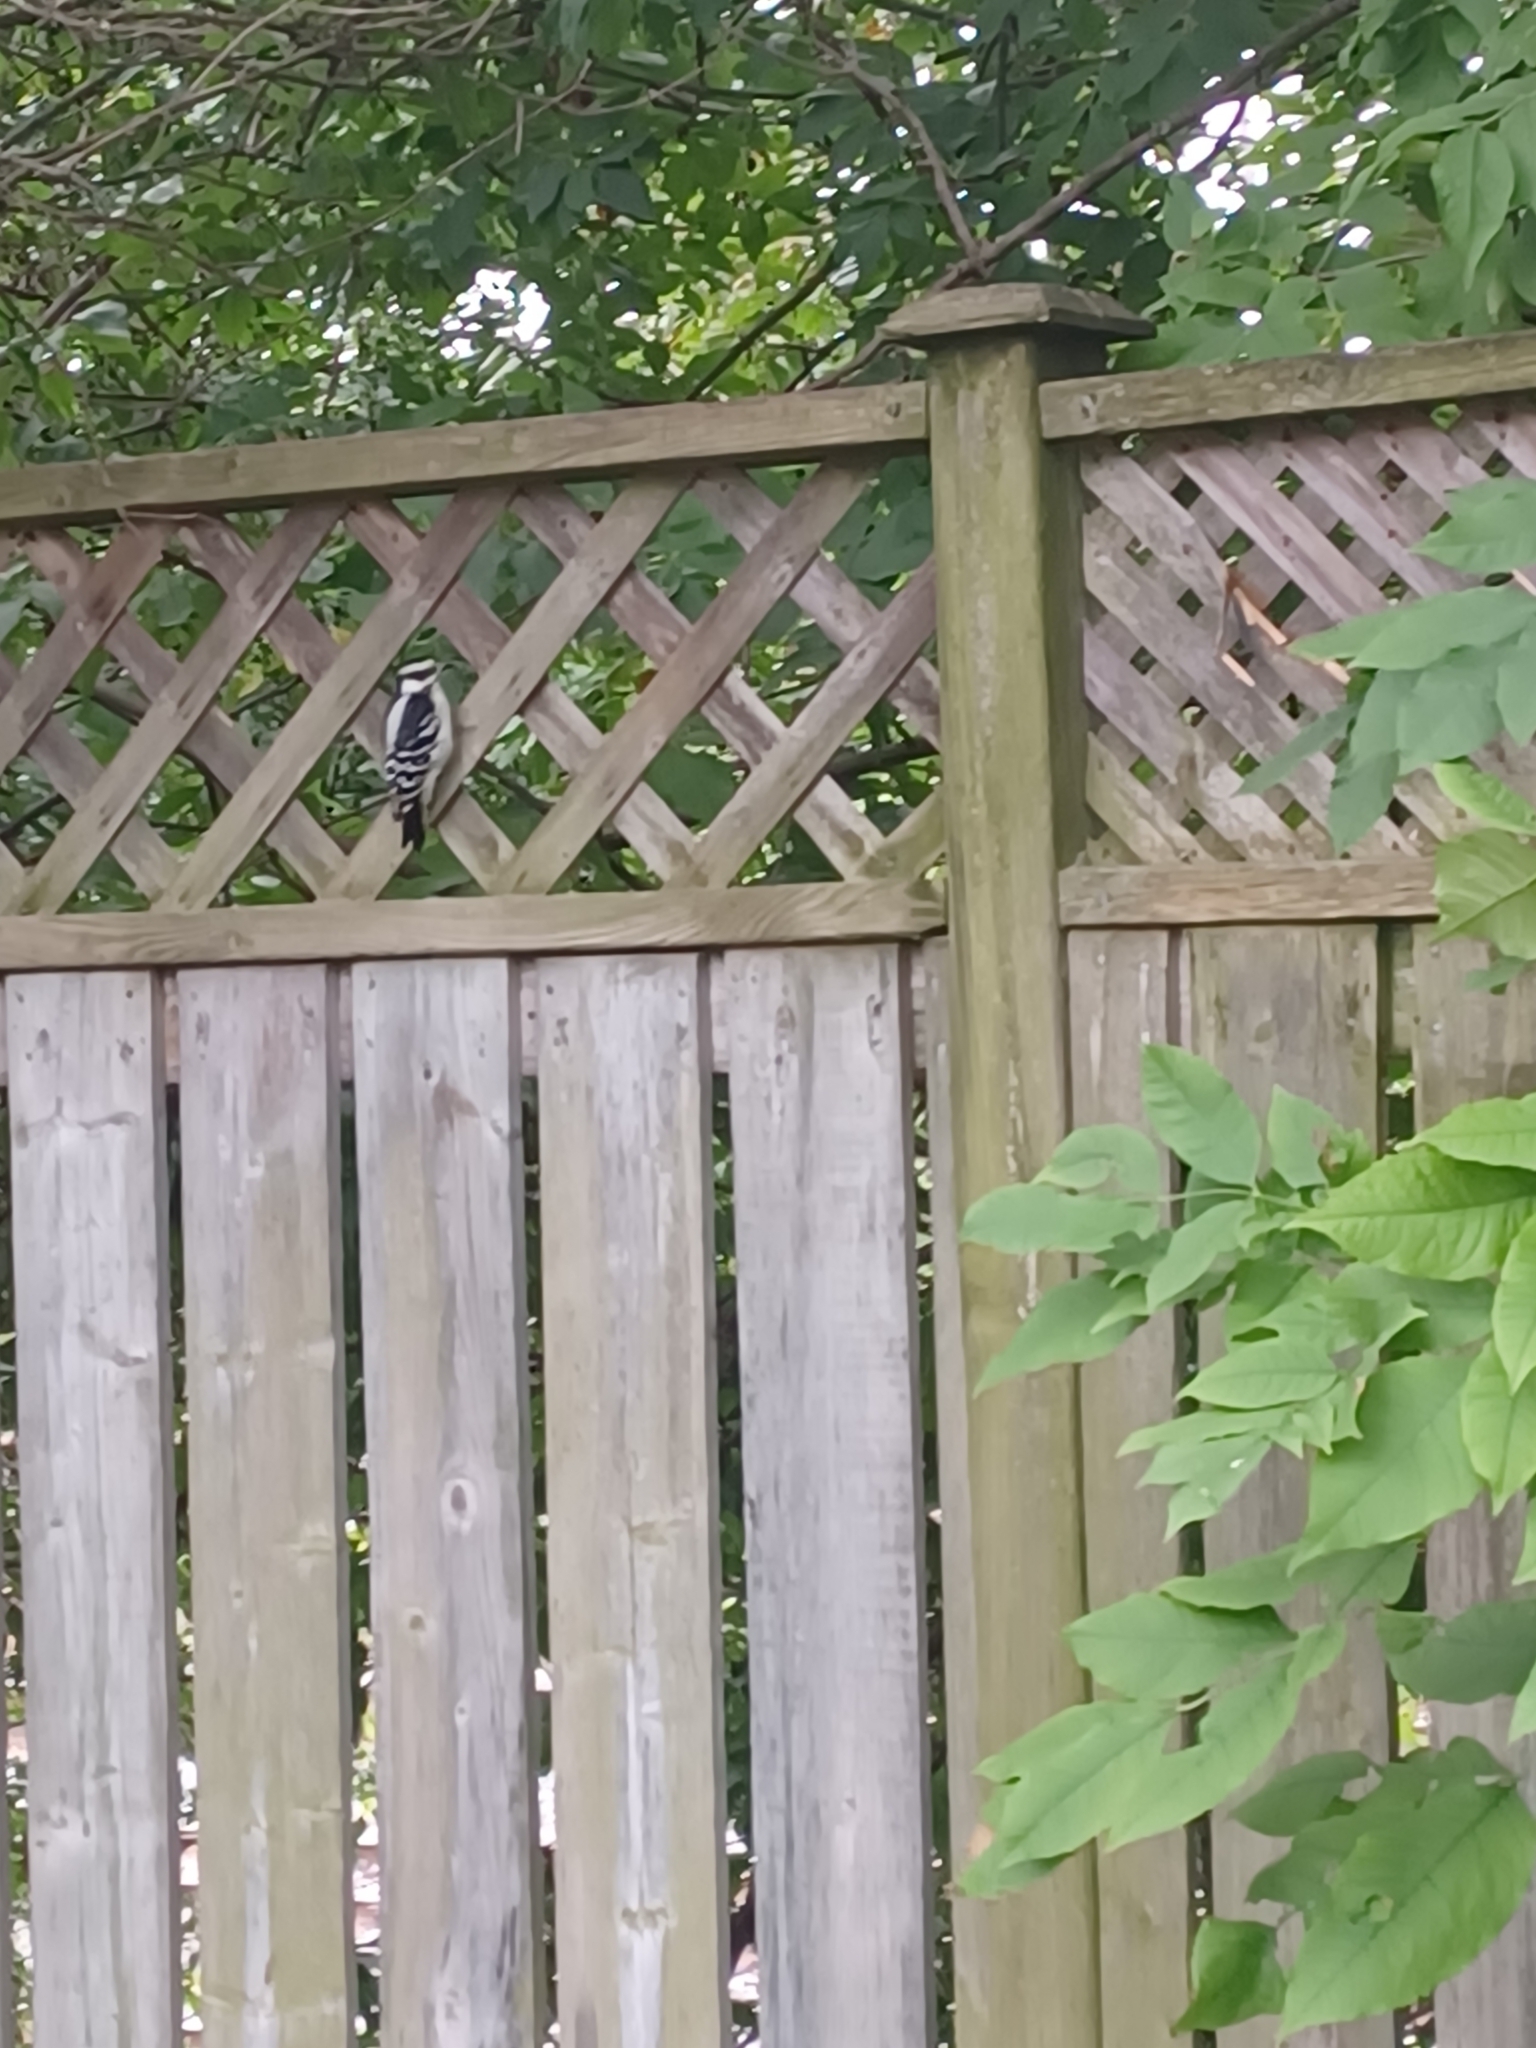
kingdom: Animalia
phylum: Chordata
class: Aves
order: Piciformes
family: Picidae
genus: Dryobates
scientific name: Dryobates pubescens
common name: Downy woodpecker
